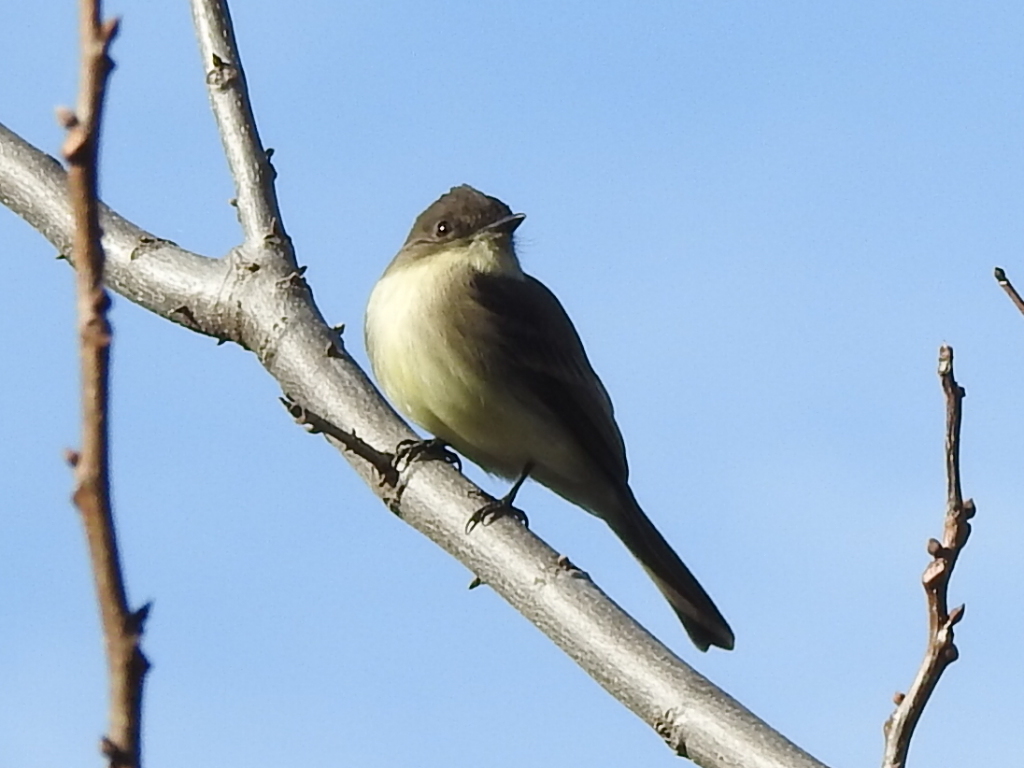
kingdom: Animalia
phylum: Chordata
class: Aves
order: Passeriformes
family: Tyrannidae
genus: Sayornis
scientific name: Sayornis phoebe
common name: Eastern phoebe
